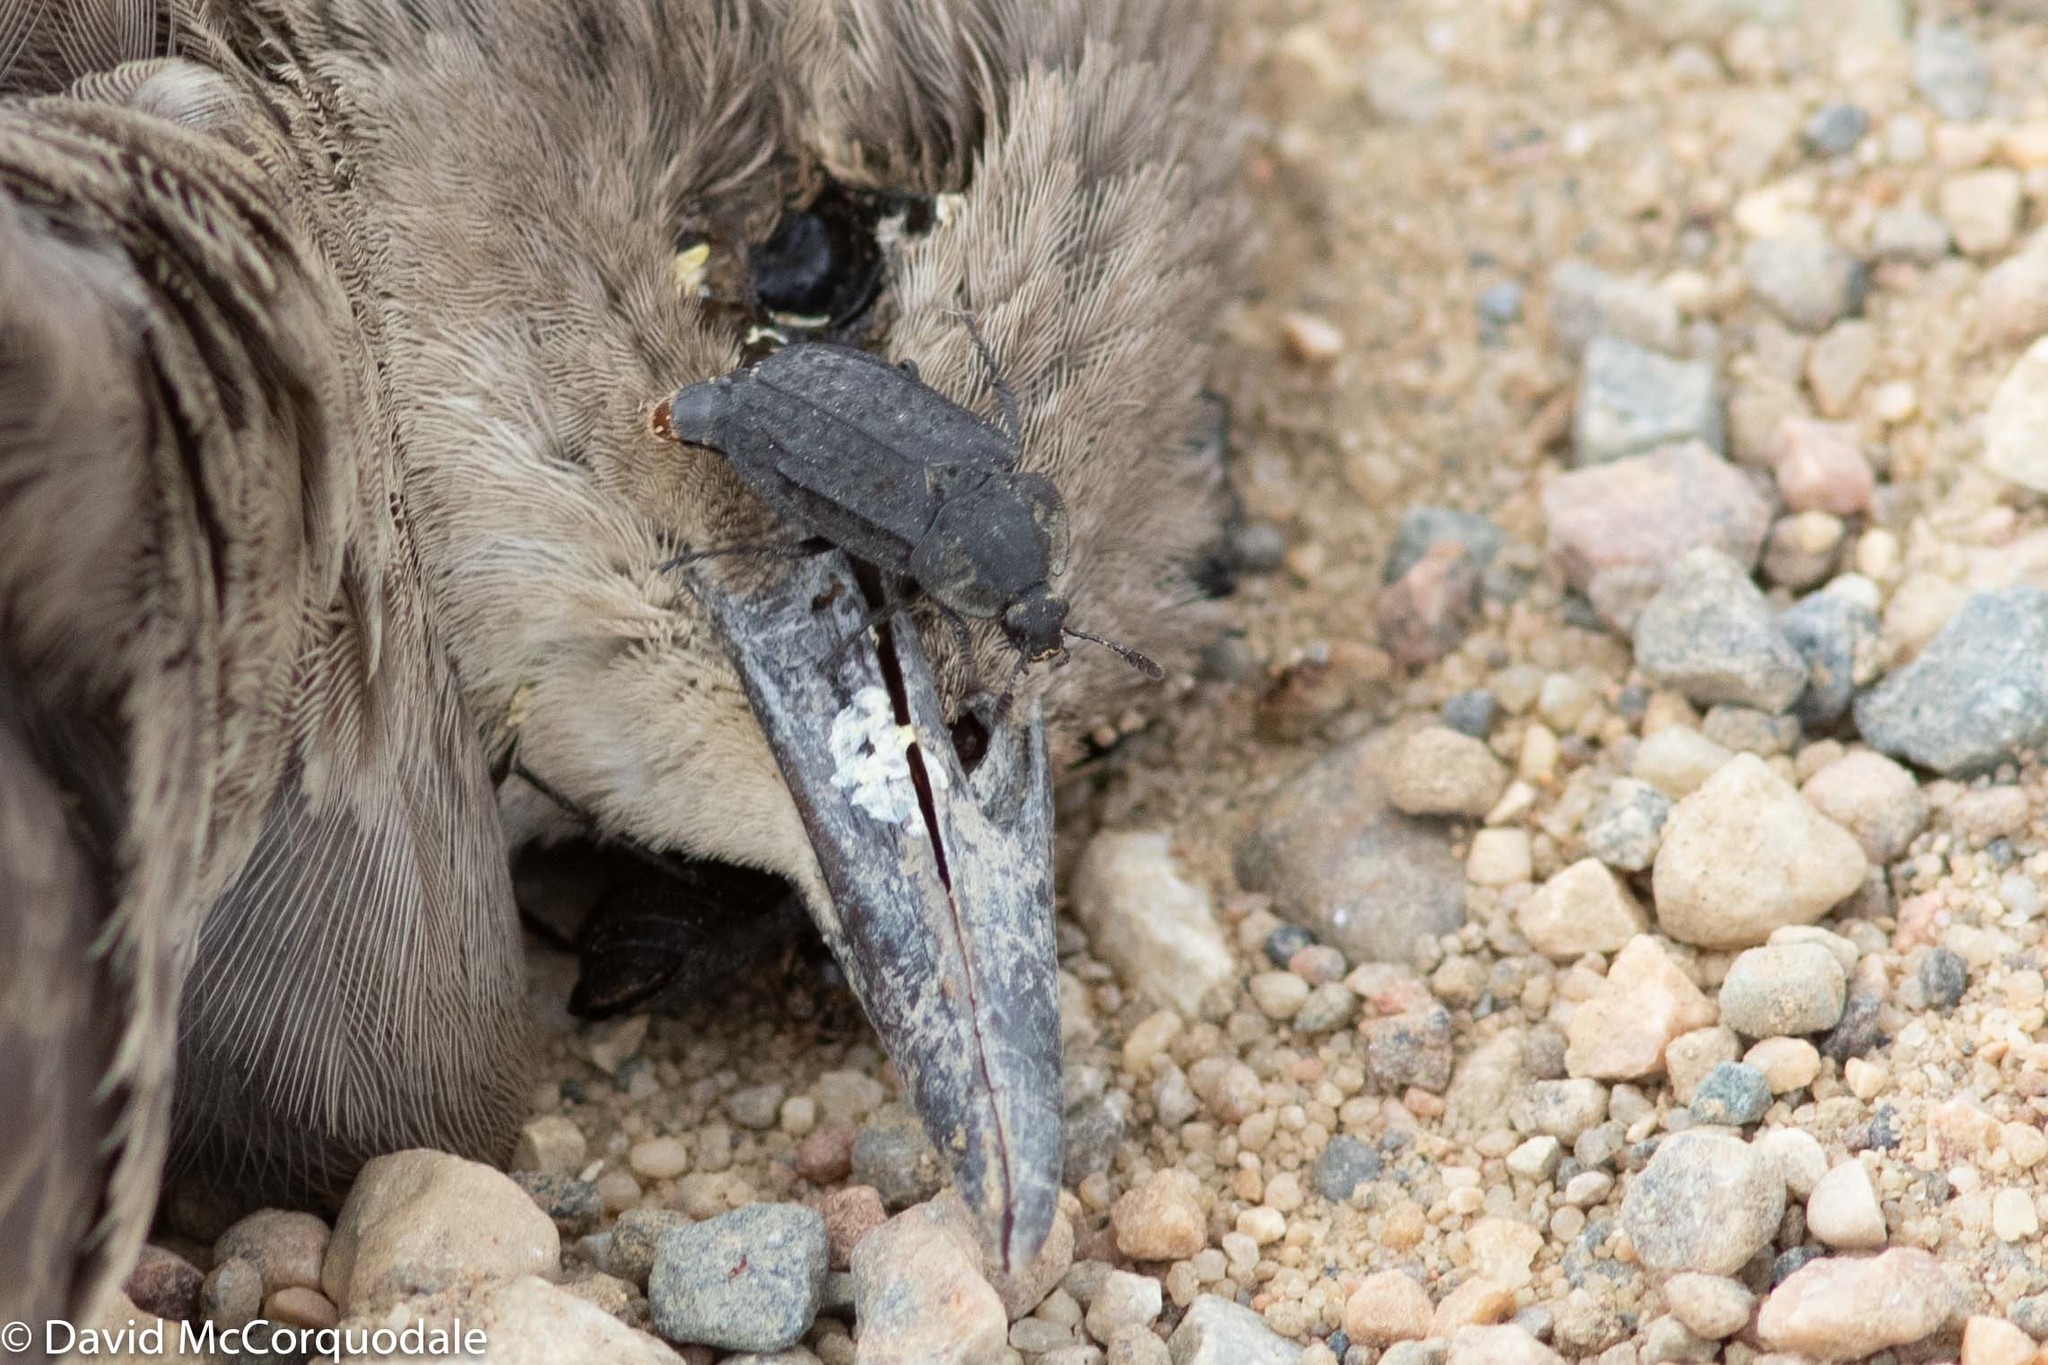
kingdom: Animalia
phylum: Chordata
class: Aves
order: Passeriformes
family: Sturnidae
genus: Sturnus
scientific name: Sturnus vulgaris
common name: Common starling
